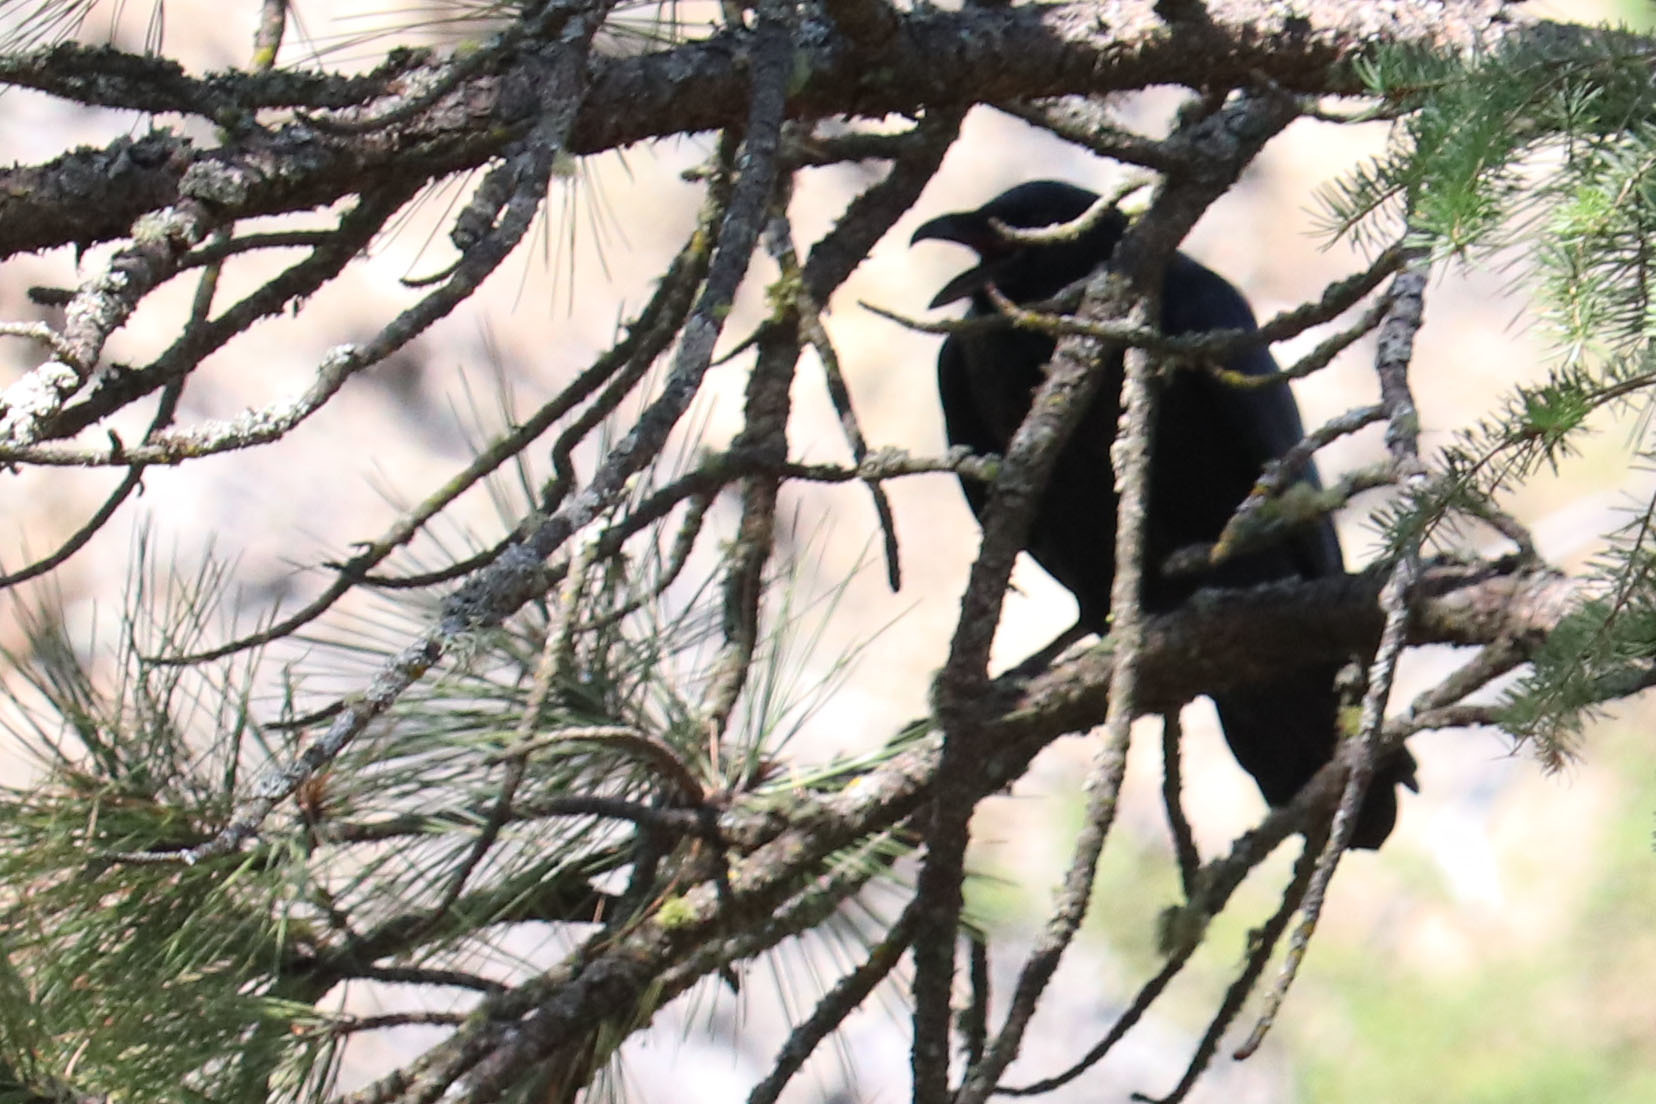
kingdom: Animalia
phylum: Chordata
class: Aves
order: Passeriformes
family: Corvidae
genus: Corvus
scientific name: Corvus corax
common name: Common raven
